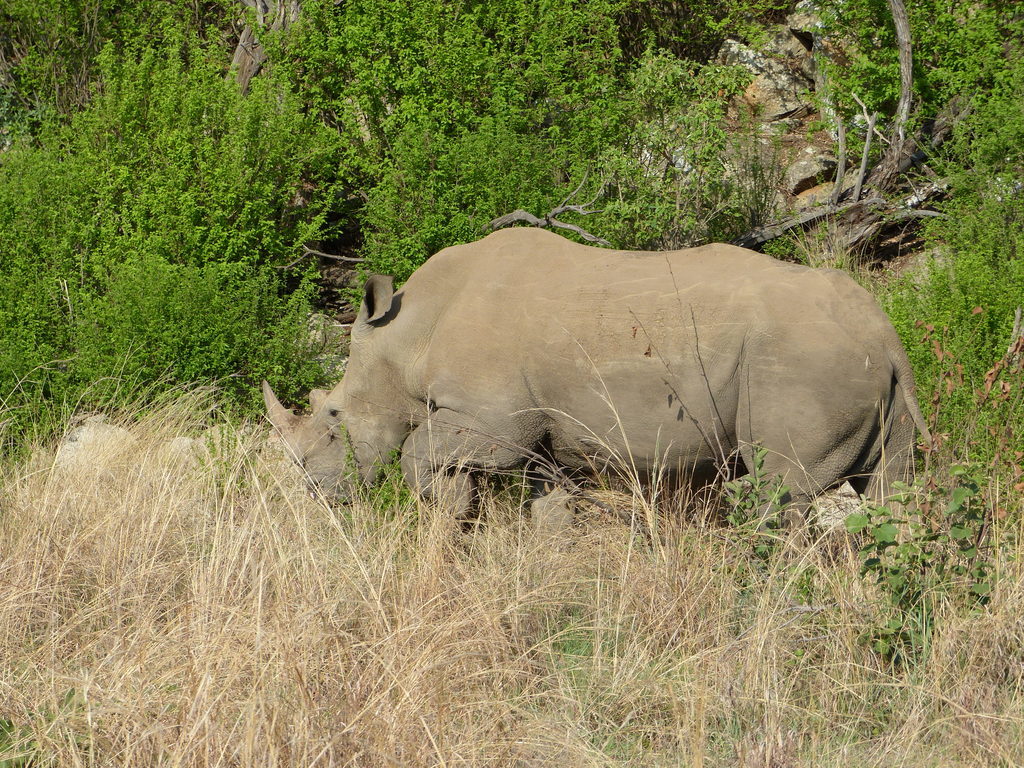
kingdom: Animalia
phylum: Chordata
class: Mammalia
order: Perissodactyla
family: Rhinocerotidae
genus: Ceratotherium
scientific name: Ceratotherium simum
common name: White rhinoceros
